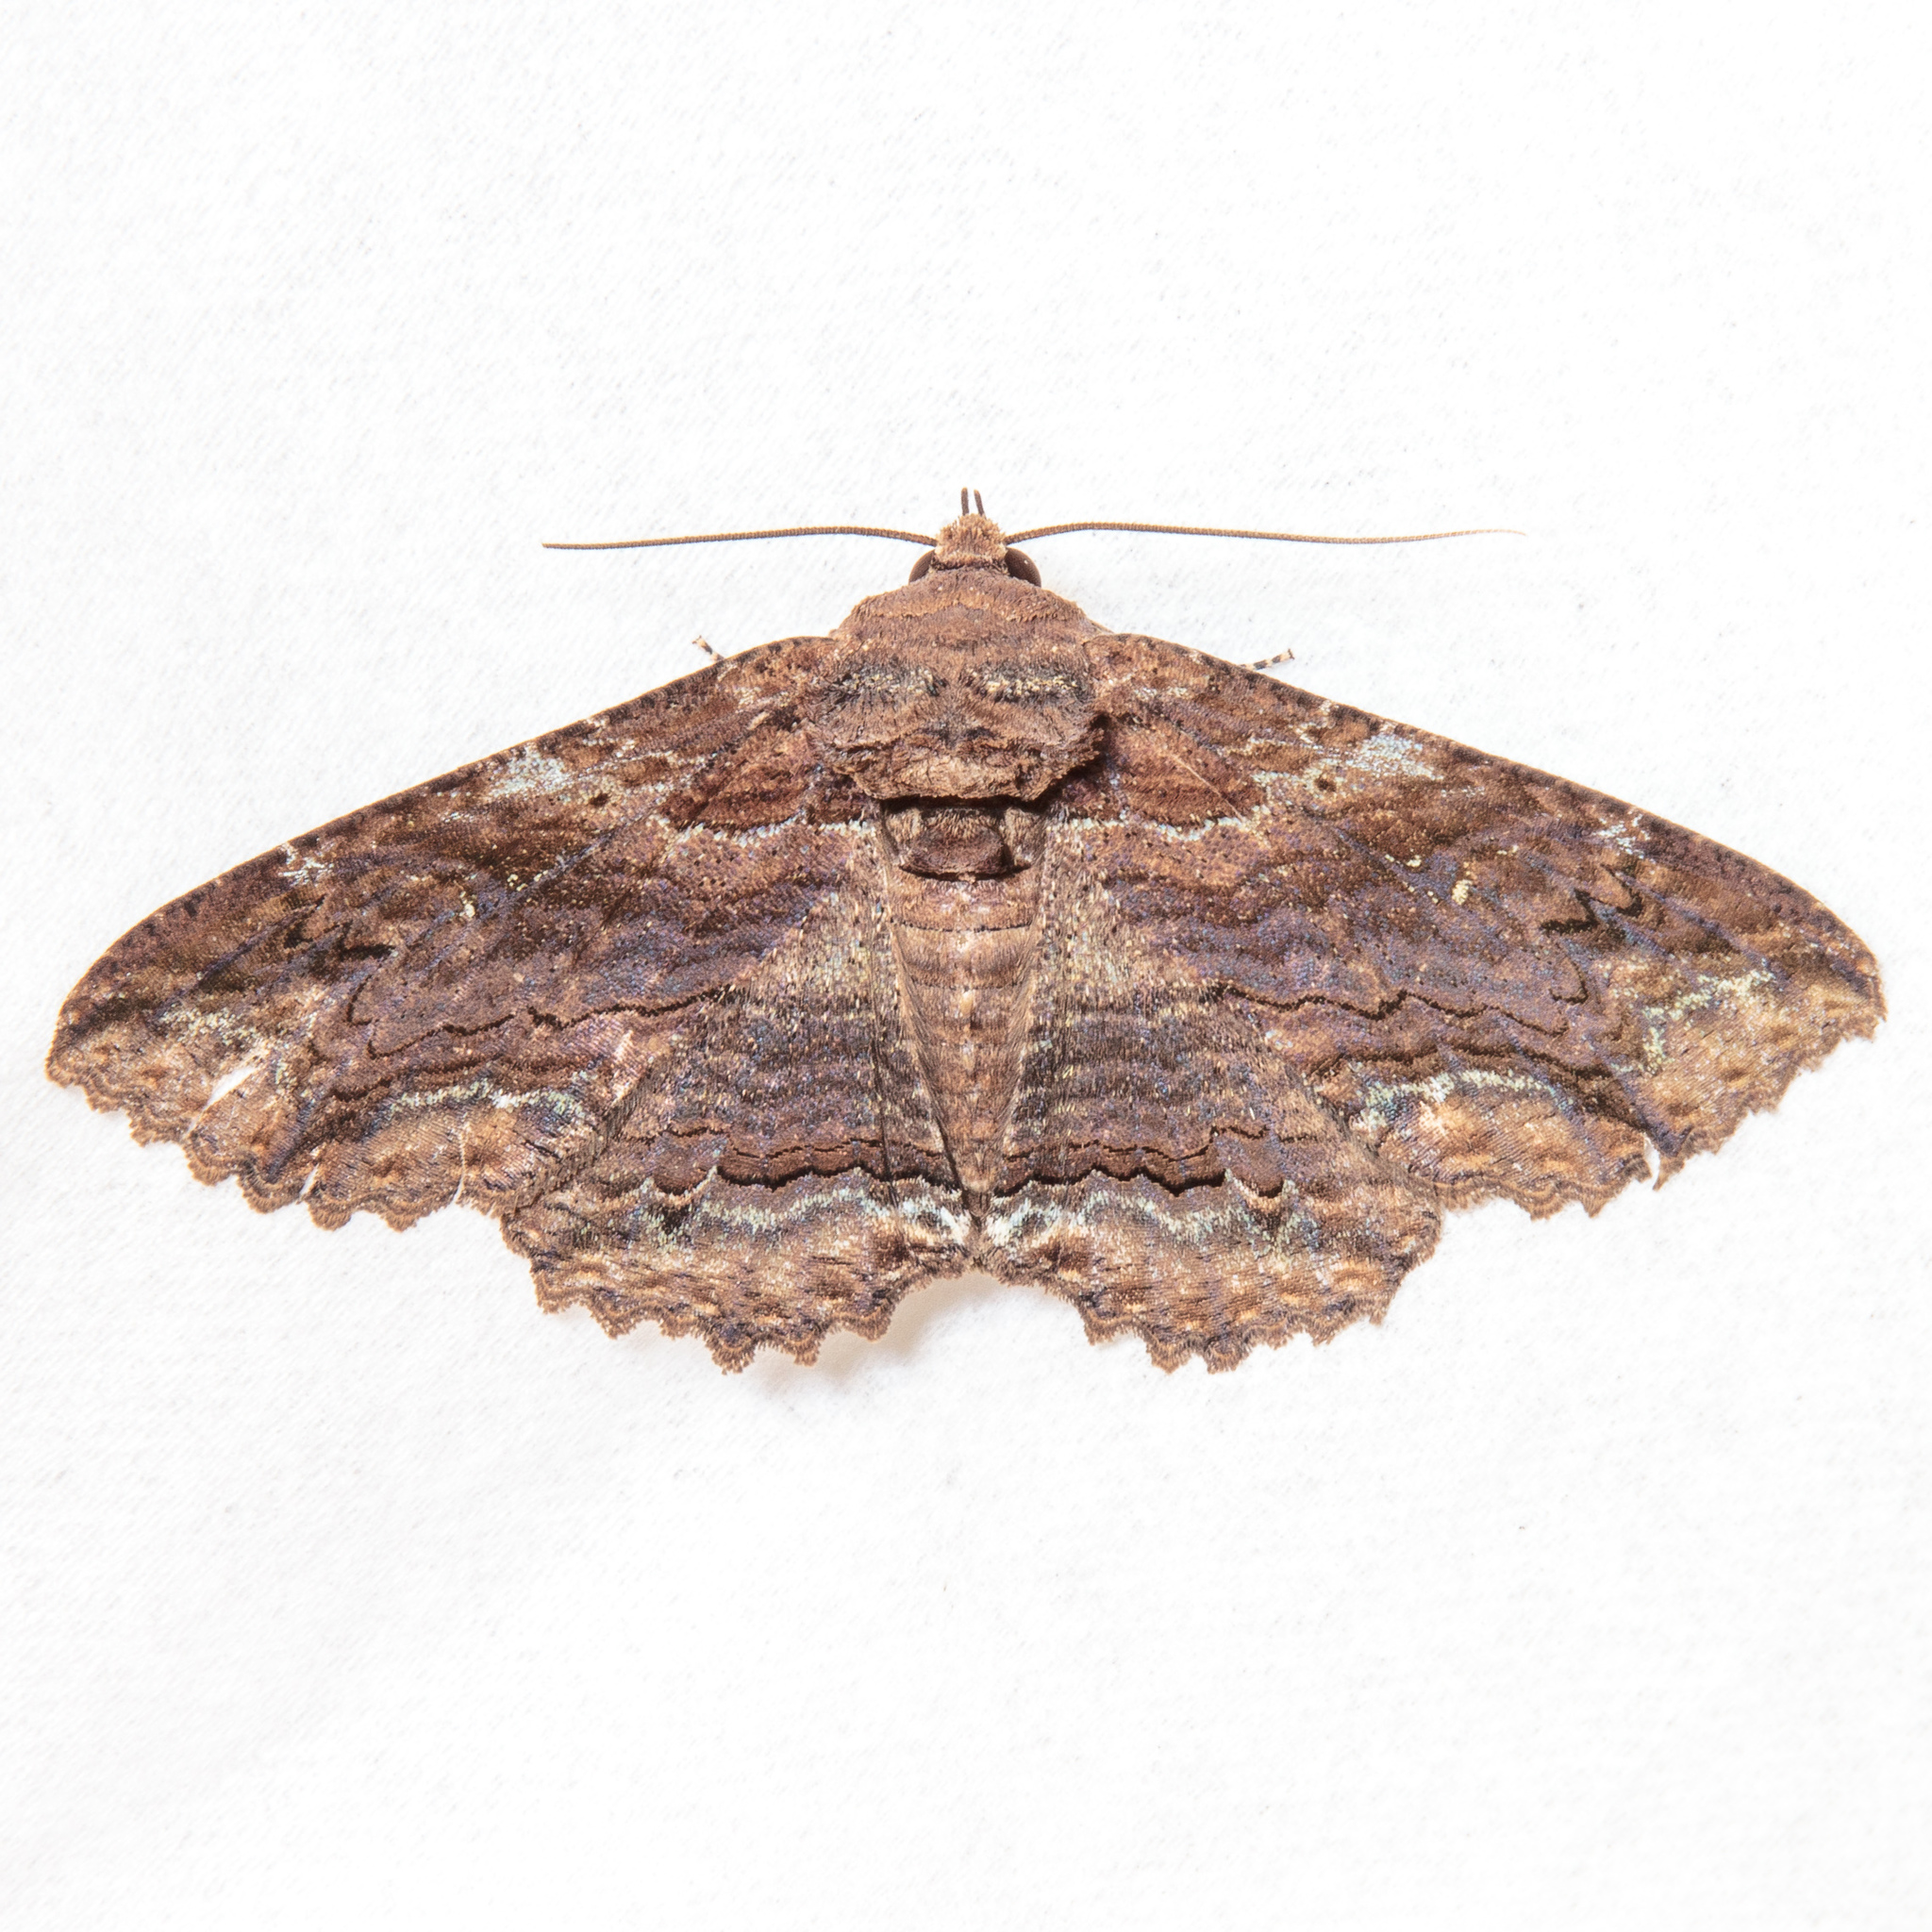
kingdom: Animalia
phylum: Arthropoda
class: Insecta
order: Lepidoptera
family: Erebidae
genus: Zale
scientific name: Zale lunata
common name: Lunate zale moth
